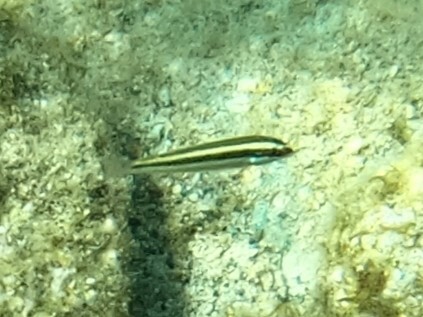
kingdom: Animalia
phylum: Chordata
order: Perciformes
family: Labridae
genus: Thalassoma
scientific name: Thalassoma bifasciatum
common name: Bluehead wrasse
